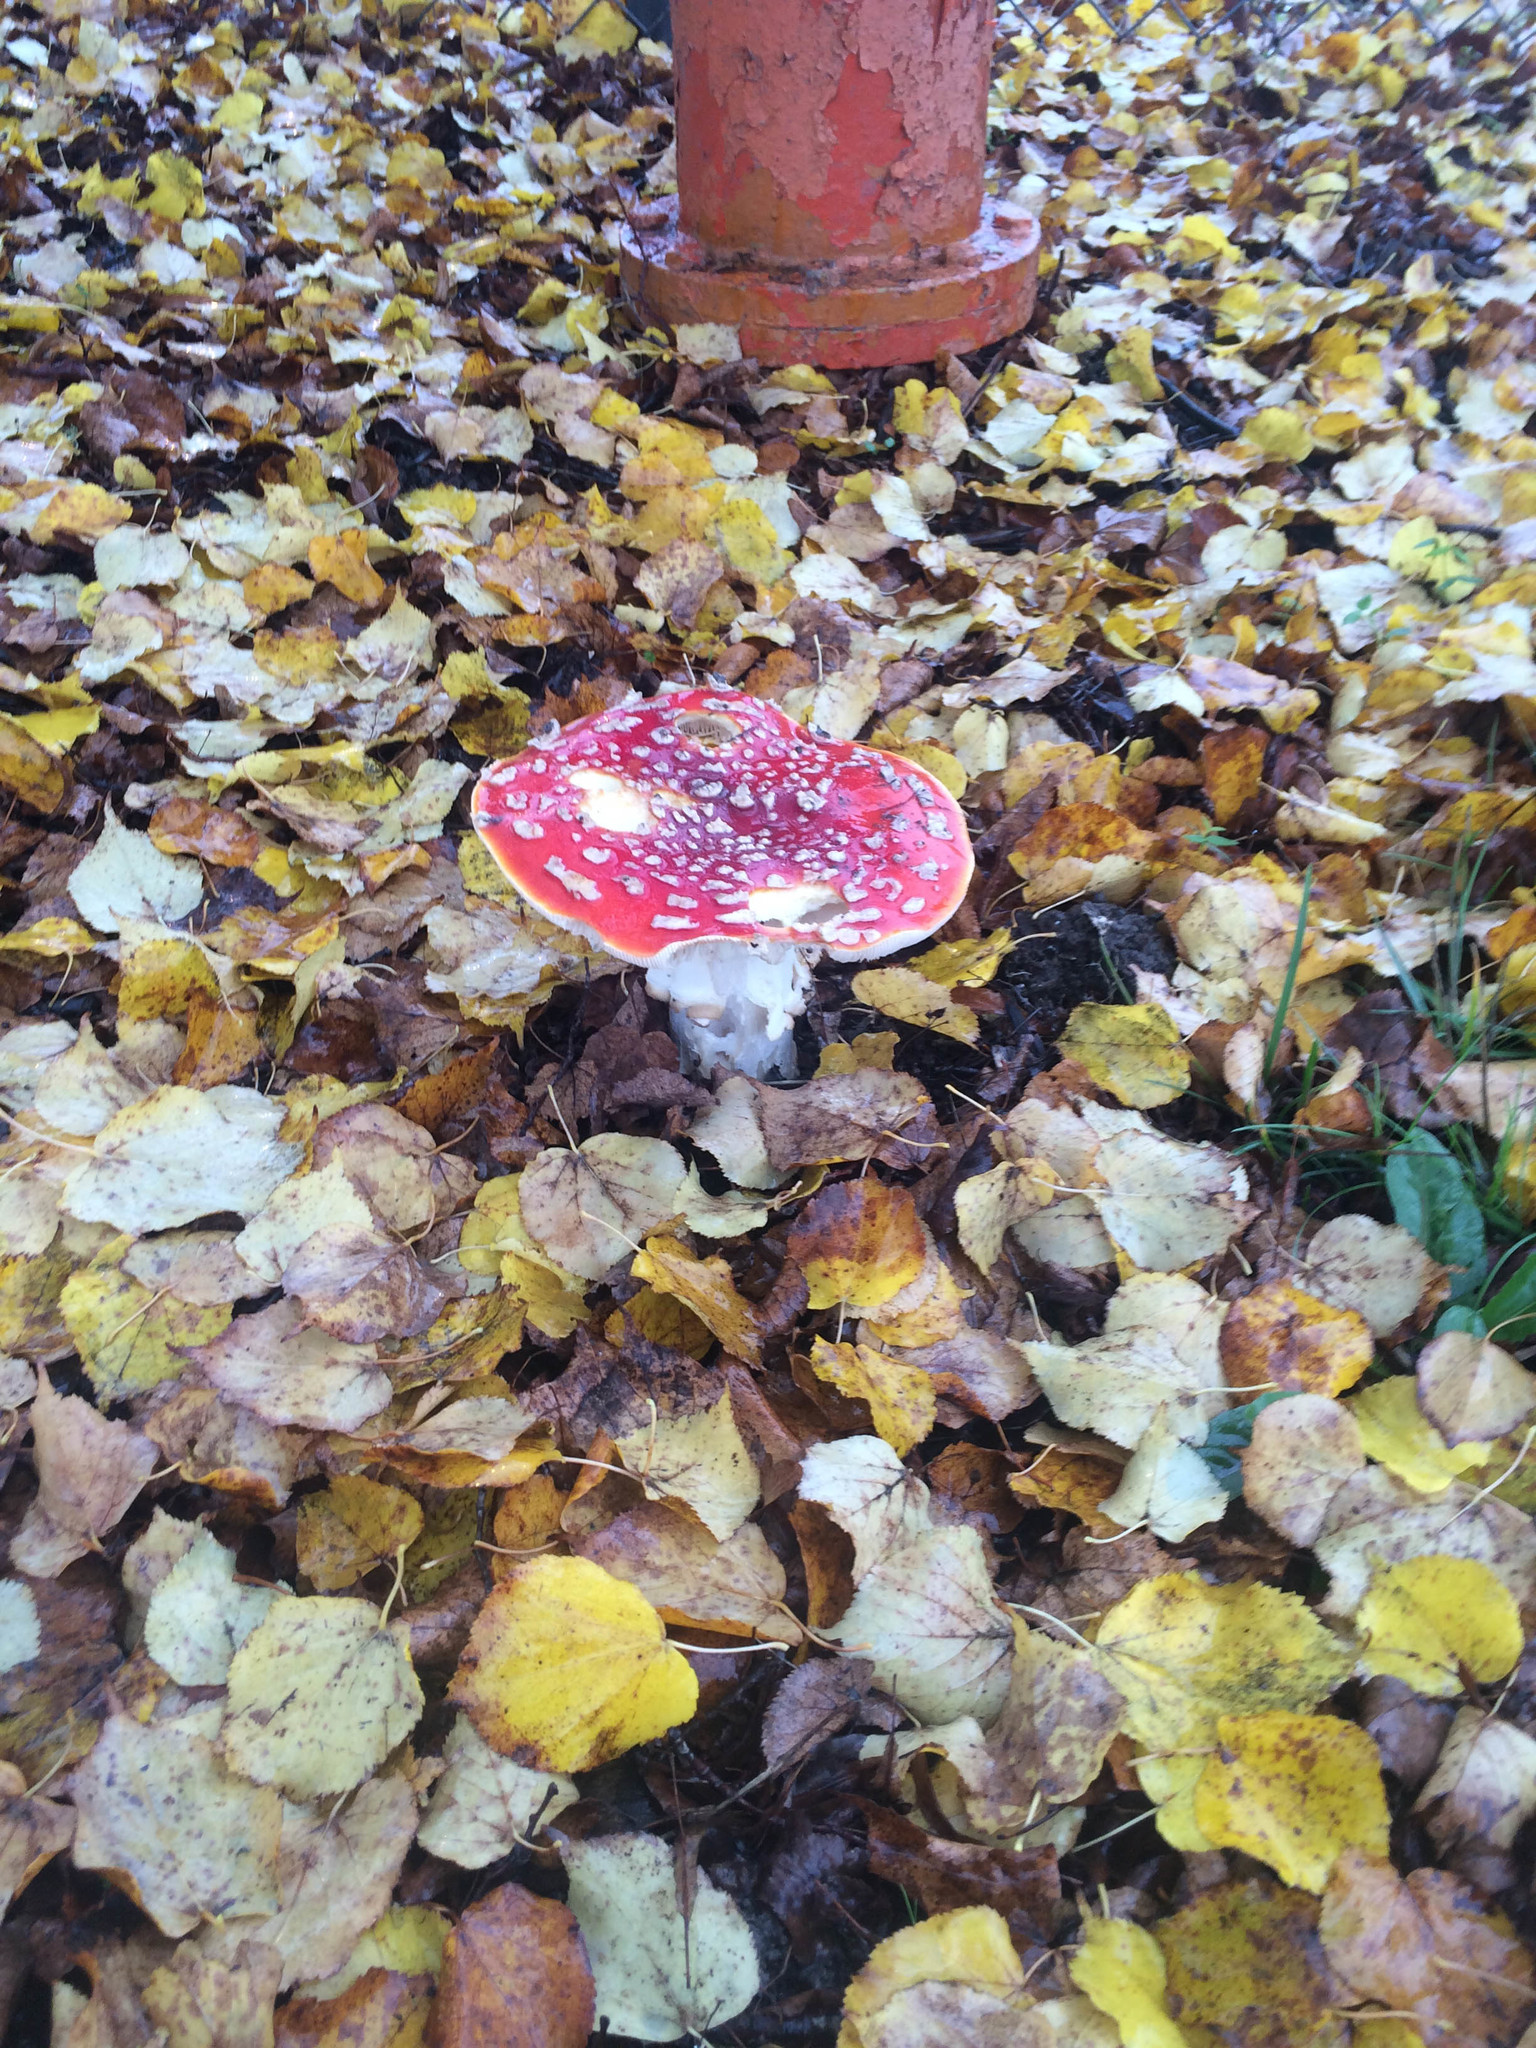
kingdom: Fungi
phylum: Basidiomycota
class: Agaricomycetes
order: Agaricales
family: Amanitaceae
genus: Amanita
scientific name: Amanita muscaria
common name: Fly agaric
